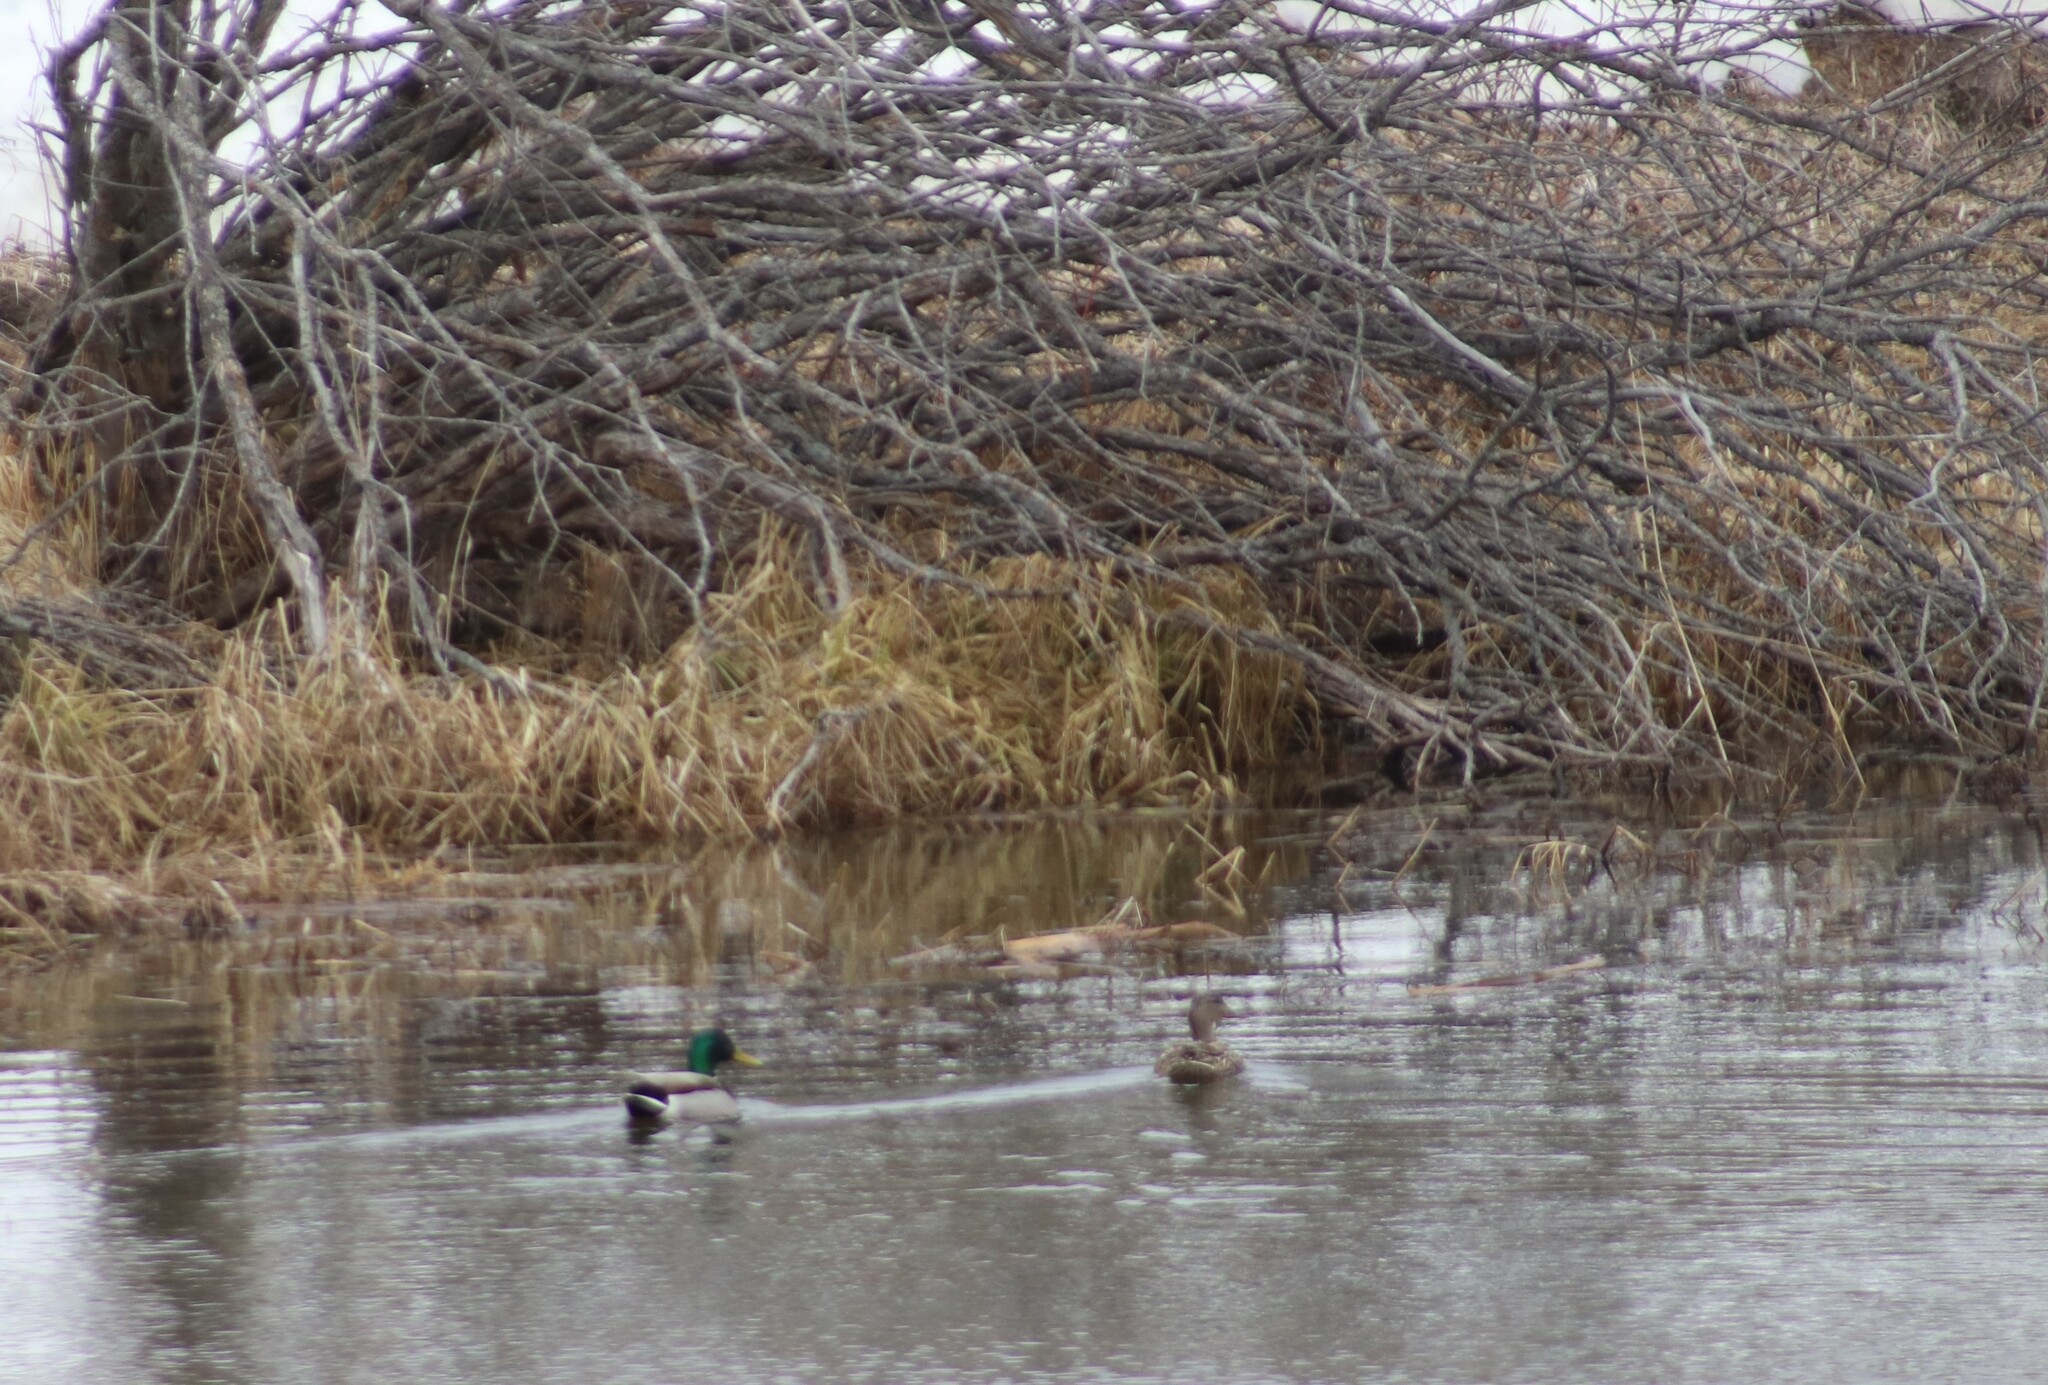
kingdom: Animalia
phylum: Chordata
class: Aves
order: Anseriformes
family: Anatidae
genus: Anas
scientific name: Anas platyrhynchos
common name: Mallard
